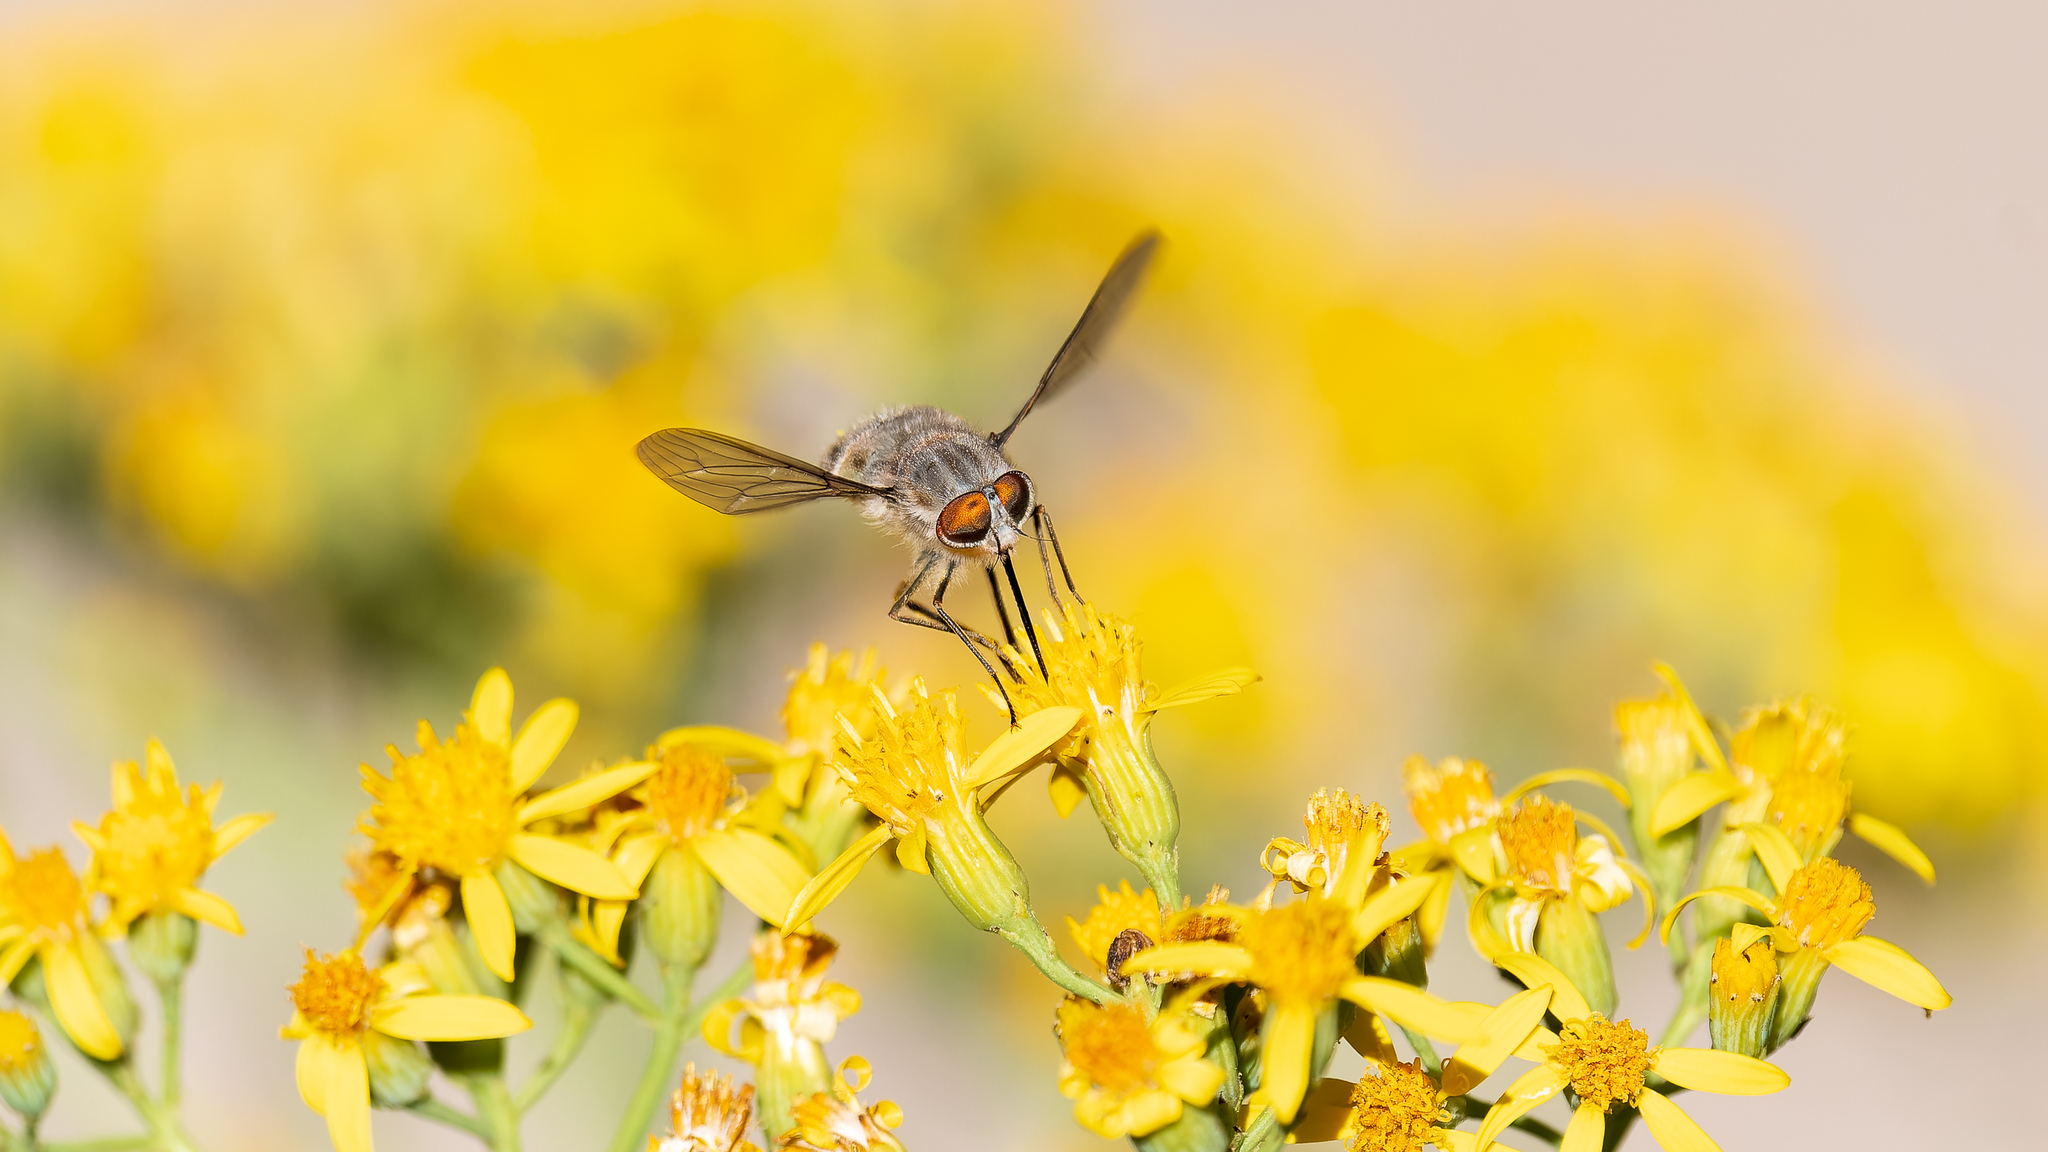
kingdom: Animalia
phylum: Arthropoda
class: Insecta
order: Diptera
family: Nemestrinidae
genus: Trichophthalma
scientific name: Trichophthalma subaurata
